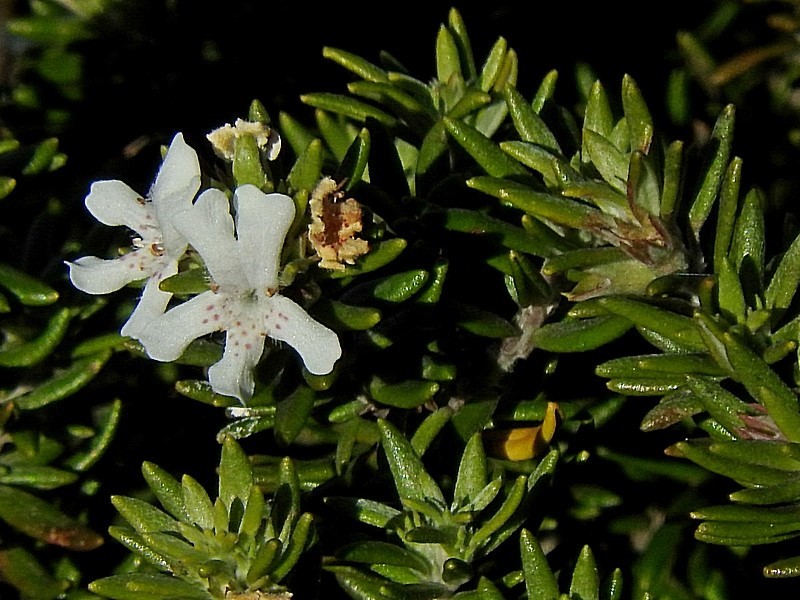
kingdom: Plantae
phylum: Tracheophyta
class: Magnoliopsida
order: Lamiales
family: Lamiaceae
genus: Westringia
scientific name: Westringia fruticosa
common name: Coastal-rosemary
